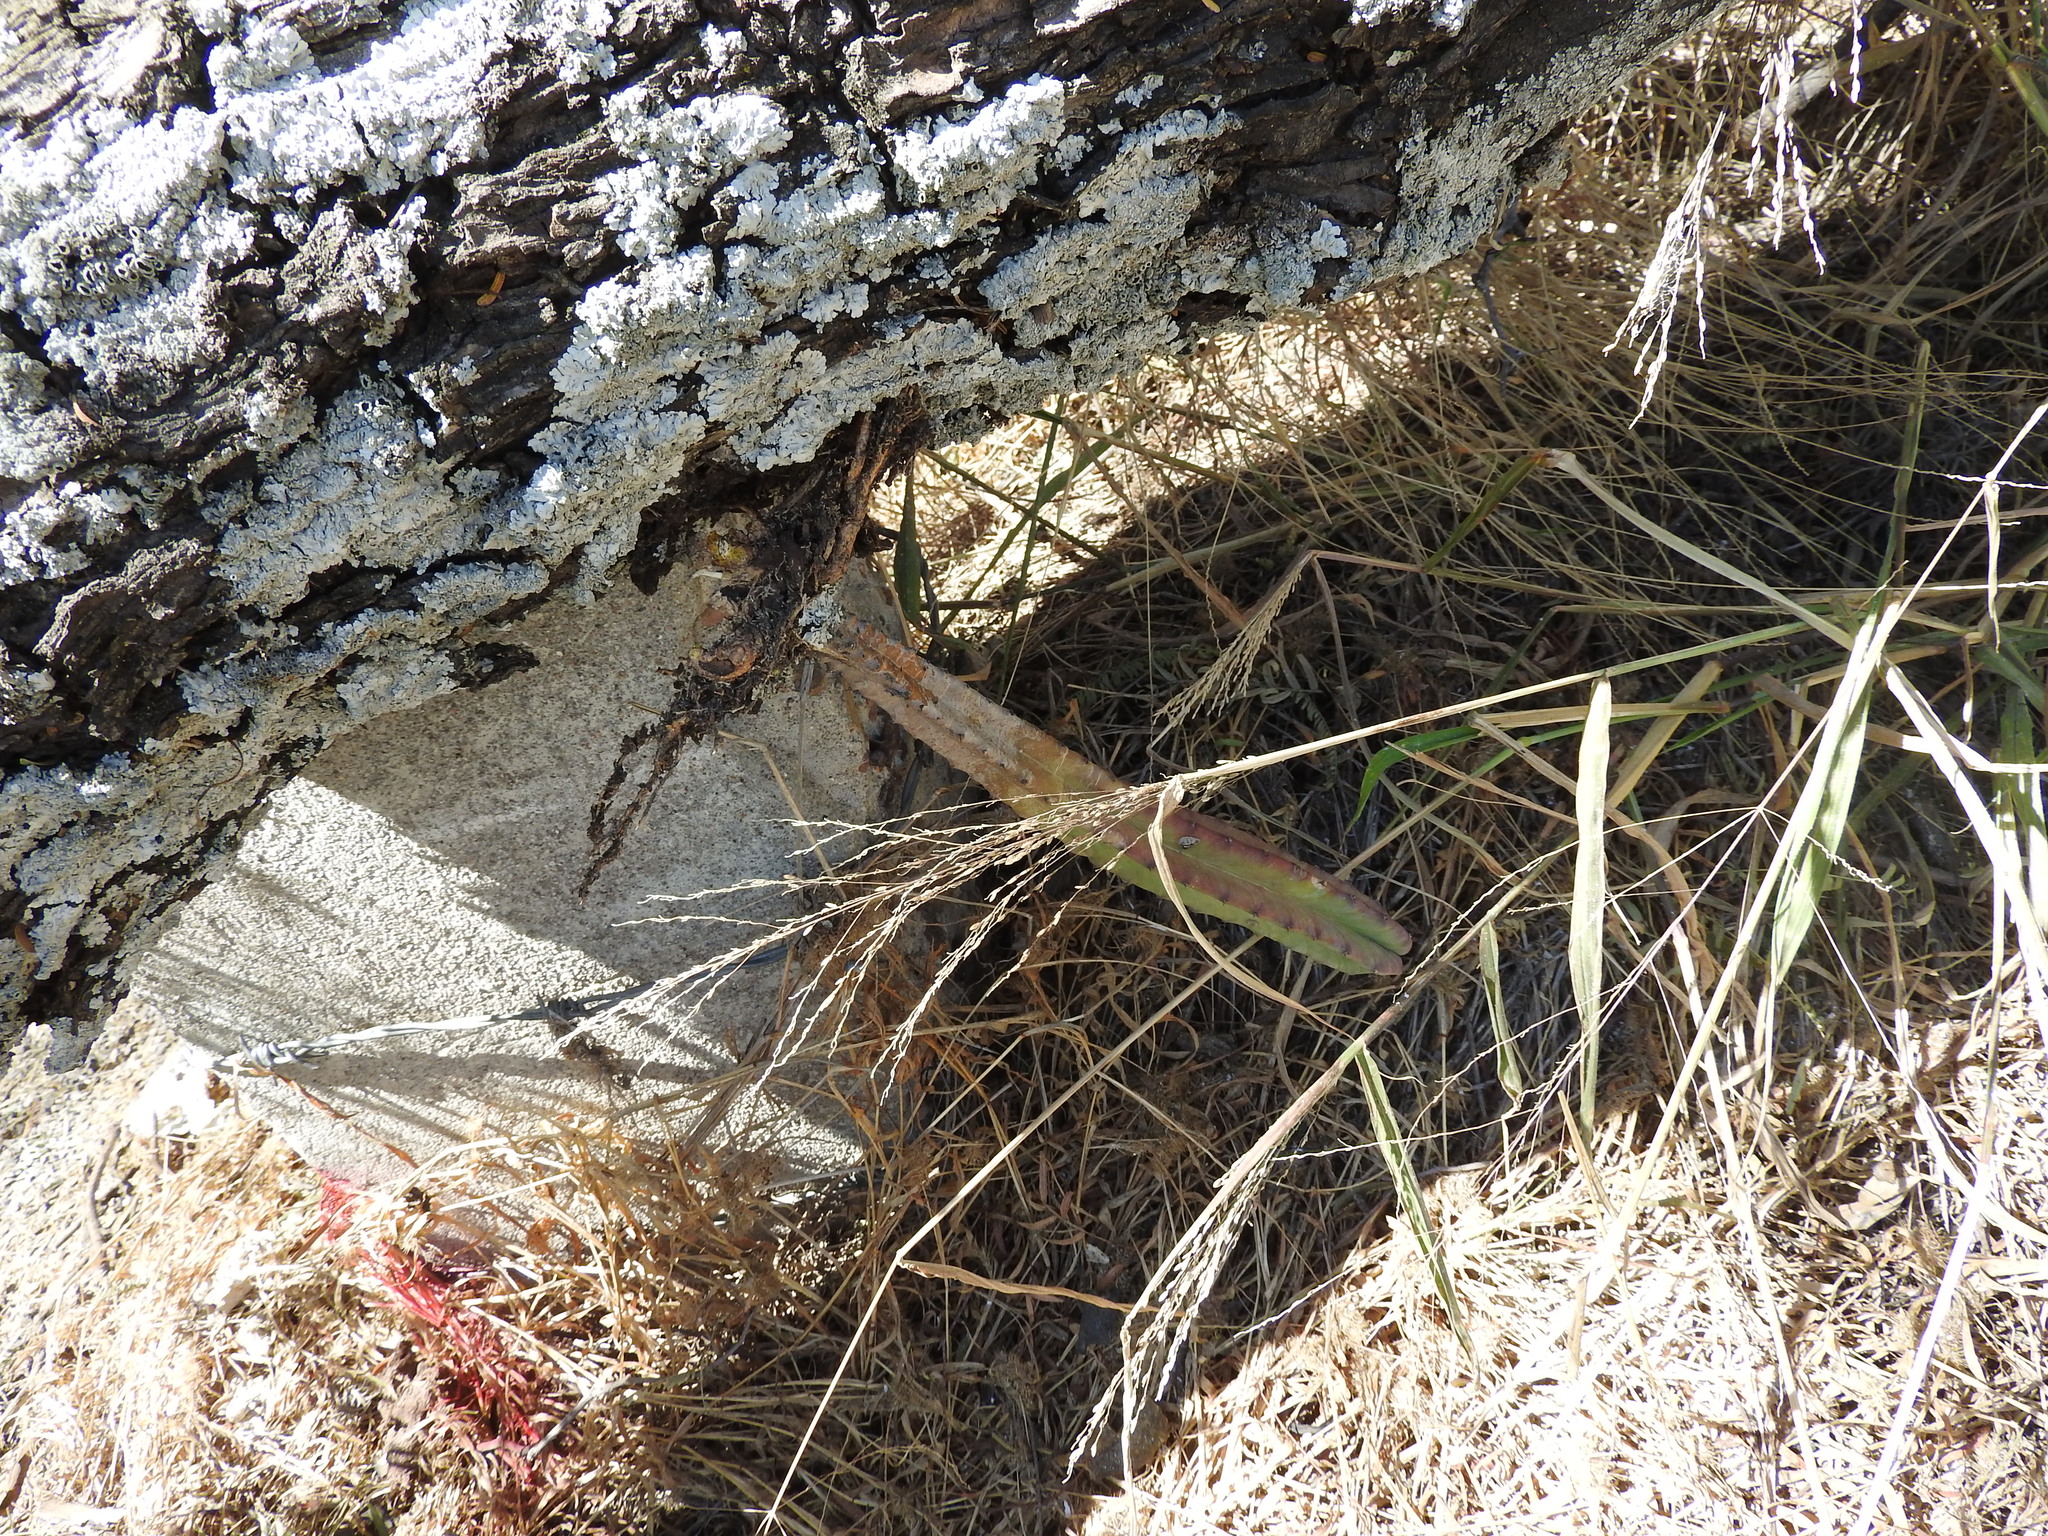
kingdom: Plantae
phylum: Tracheophyta
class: Magnoliopsida
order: Caryophyllales
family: Cactaceae
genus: Myrtillocactus
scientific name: Myrtillocactus geometrizans
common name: Bilberry cactus
